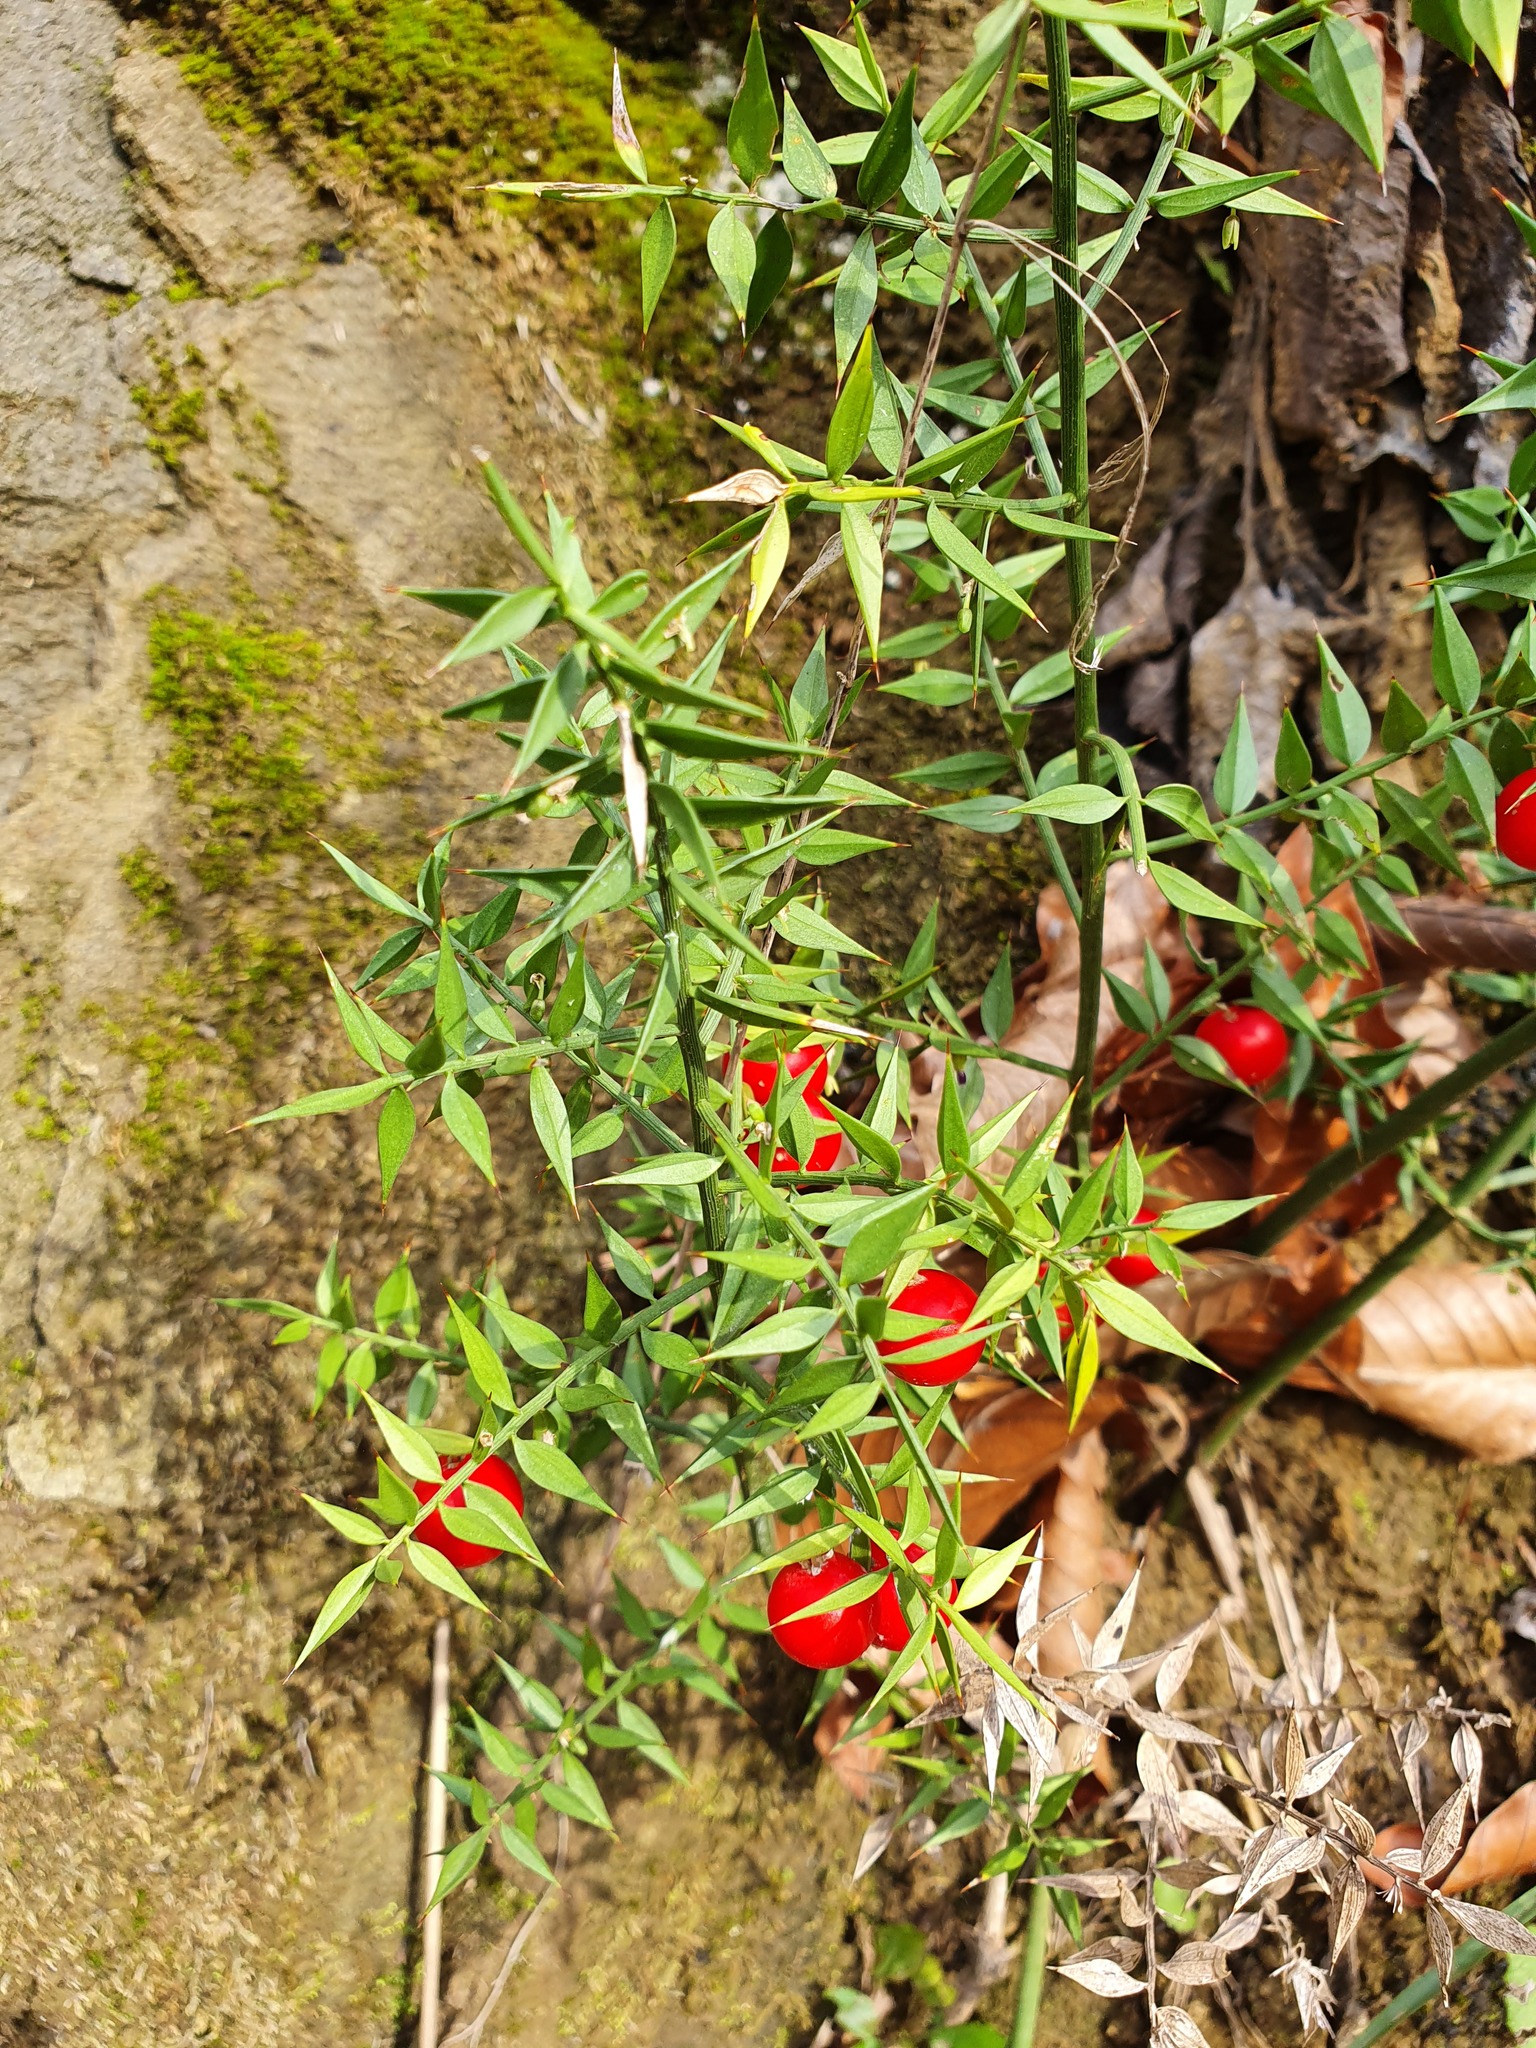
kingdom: Plantae
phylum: Tracheophyta
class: Liliopsida
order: Asparagales
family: Asparagaceae
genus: Ruscus
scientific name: Ruscus aculeatus
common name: Butcher's-broom
